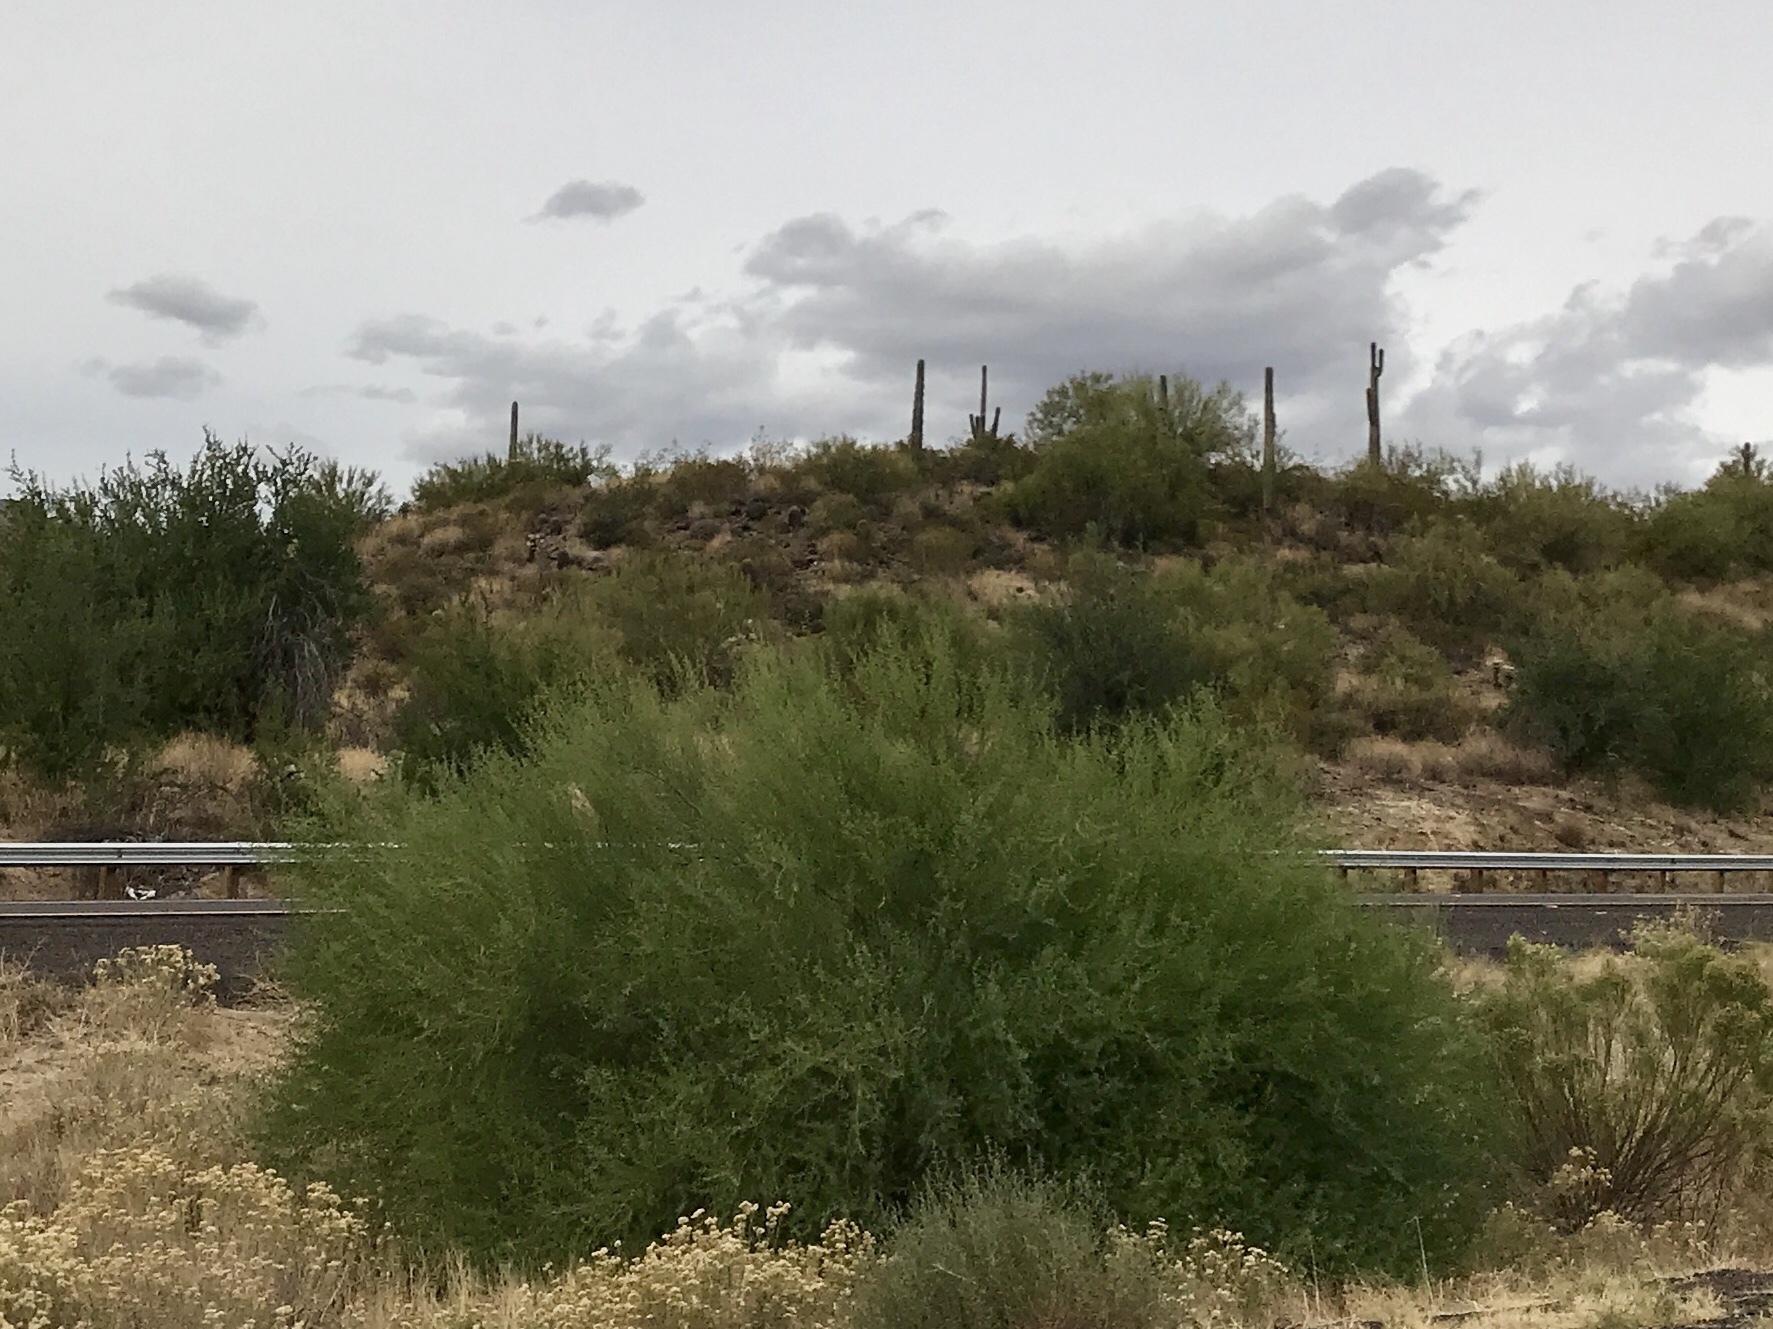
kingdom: Plantae
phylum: Tracheophyta
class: Magnoliopsida
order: Fabales
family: Fabaceae
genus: Parkinsonia
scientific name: Parkinsonia microphylla
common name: Yellow paloverde
